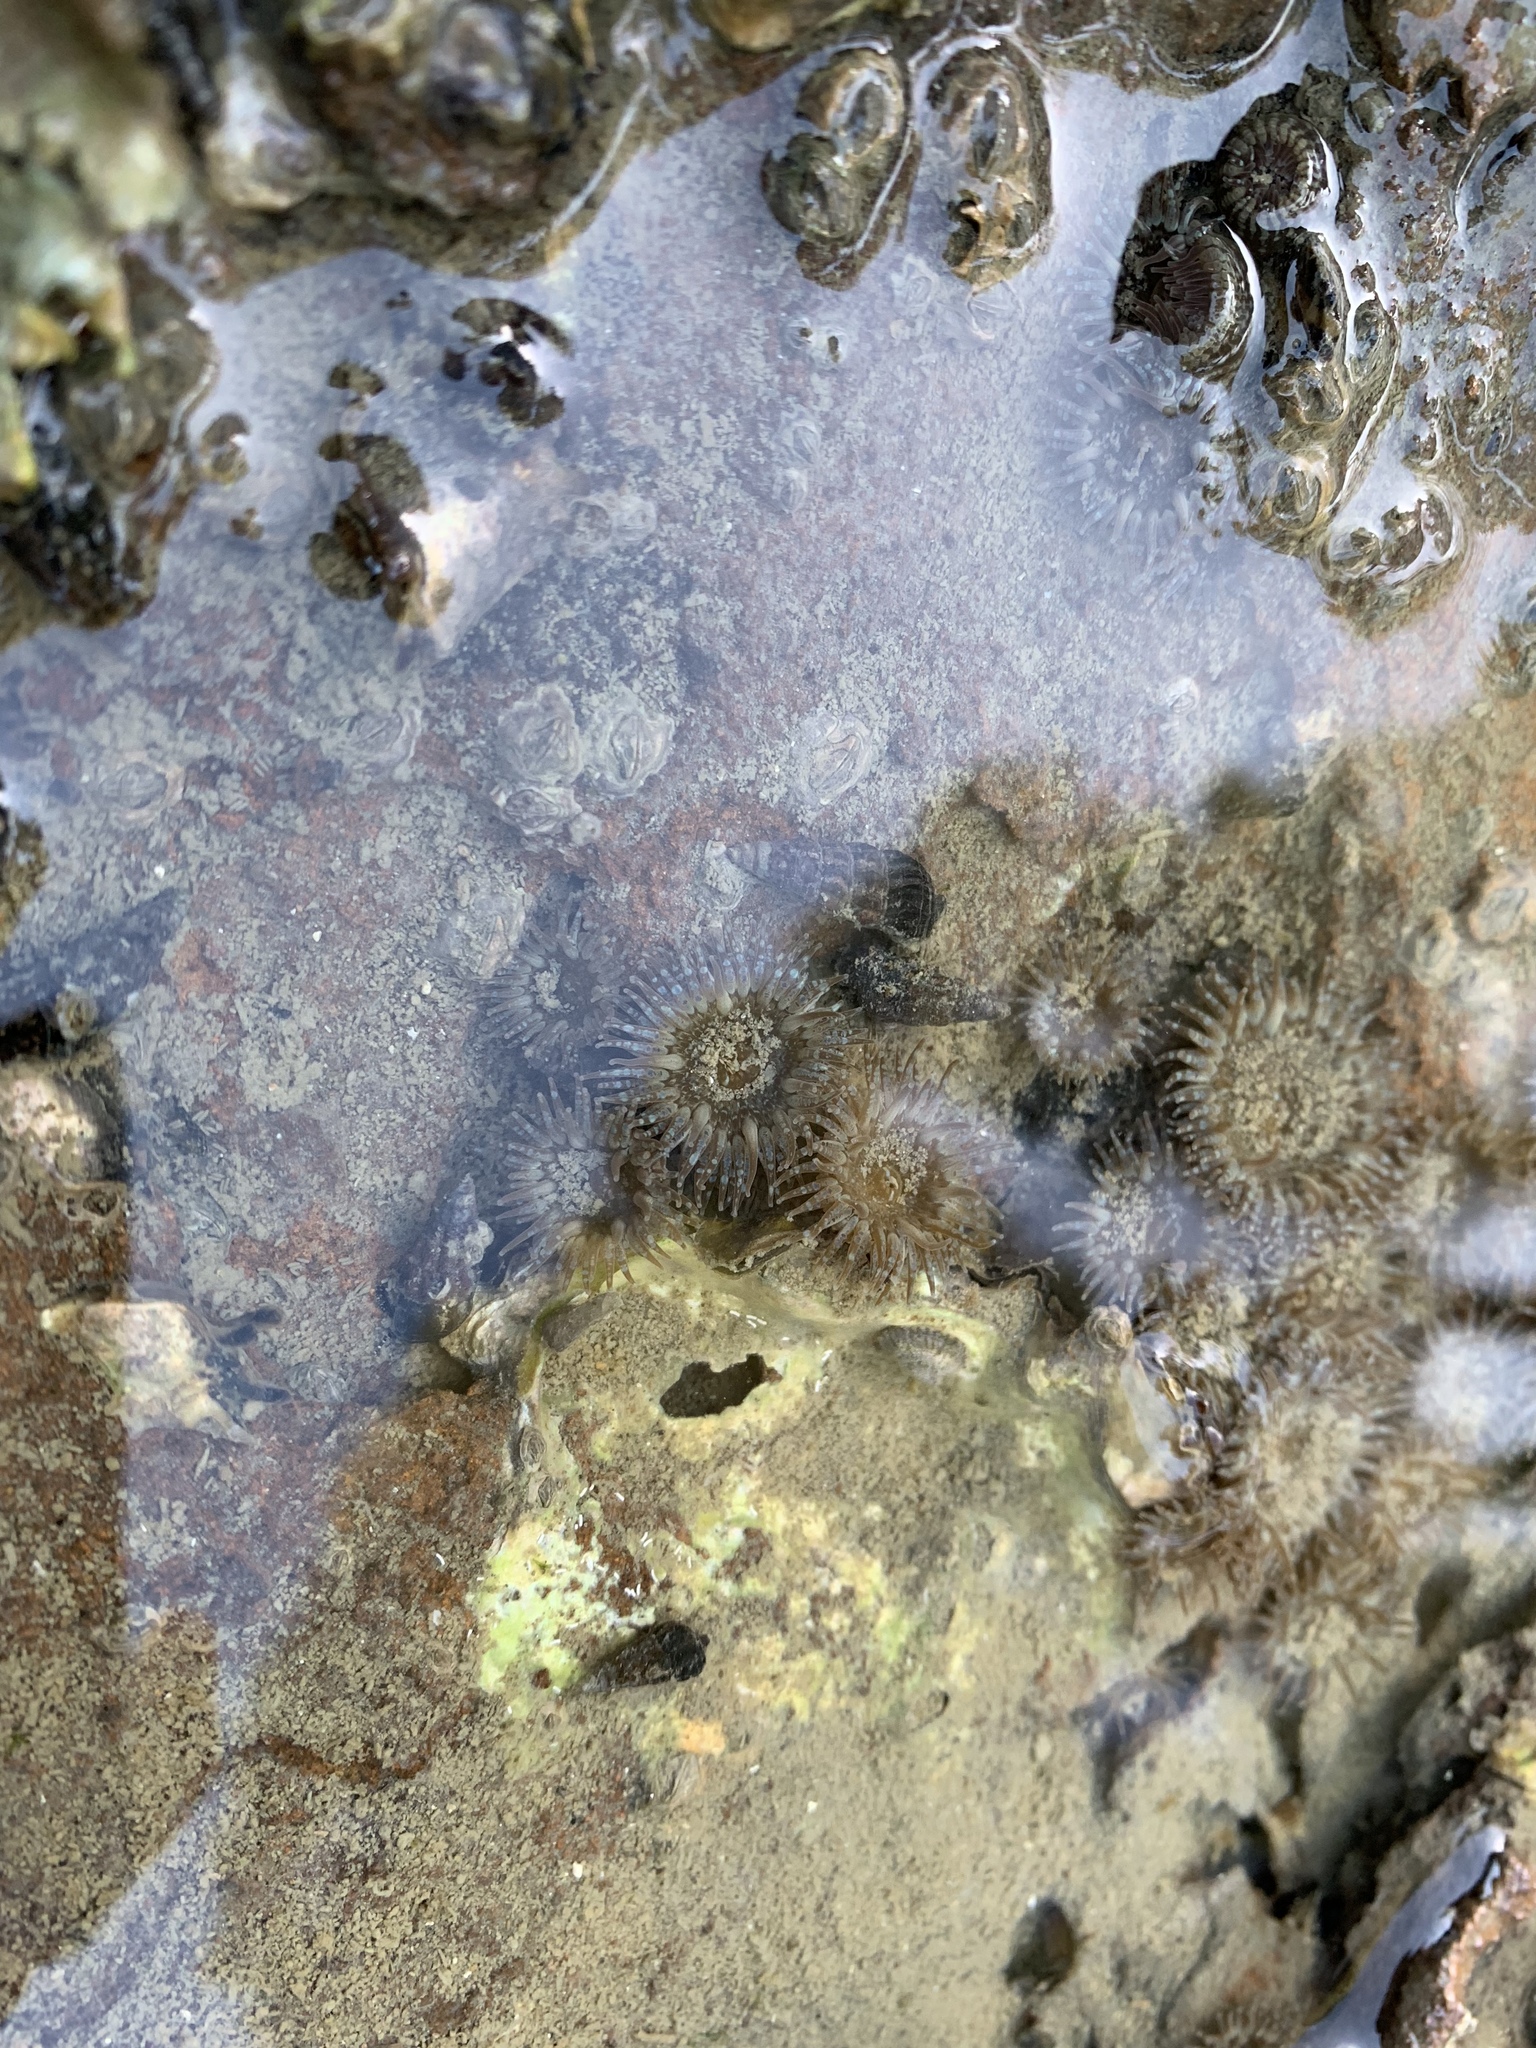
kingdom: Animalia
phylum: Mollusca
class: Gastropoda
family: Batillariidae
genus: Zeacumantus
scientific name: Zeacumantus subcarinatus
